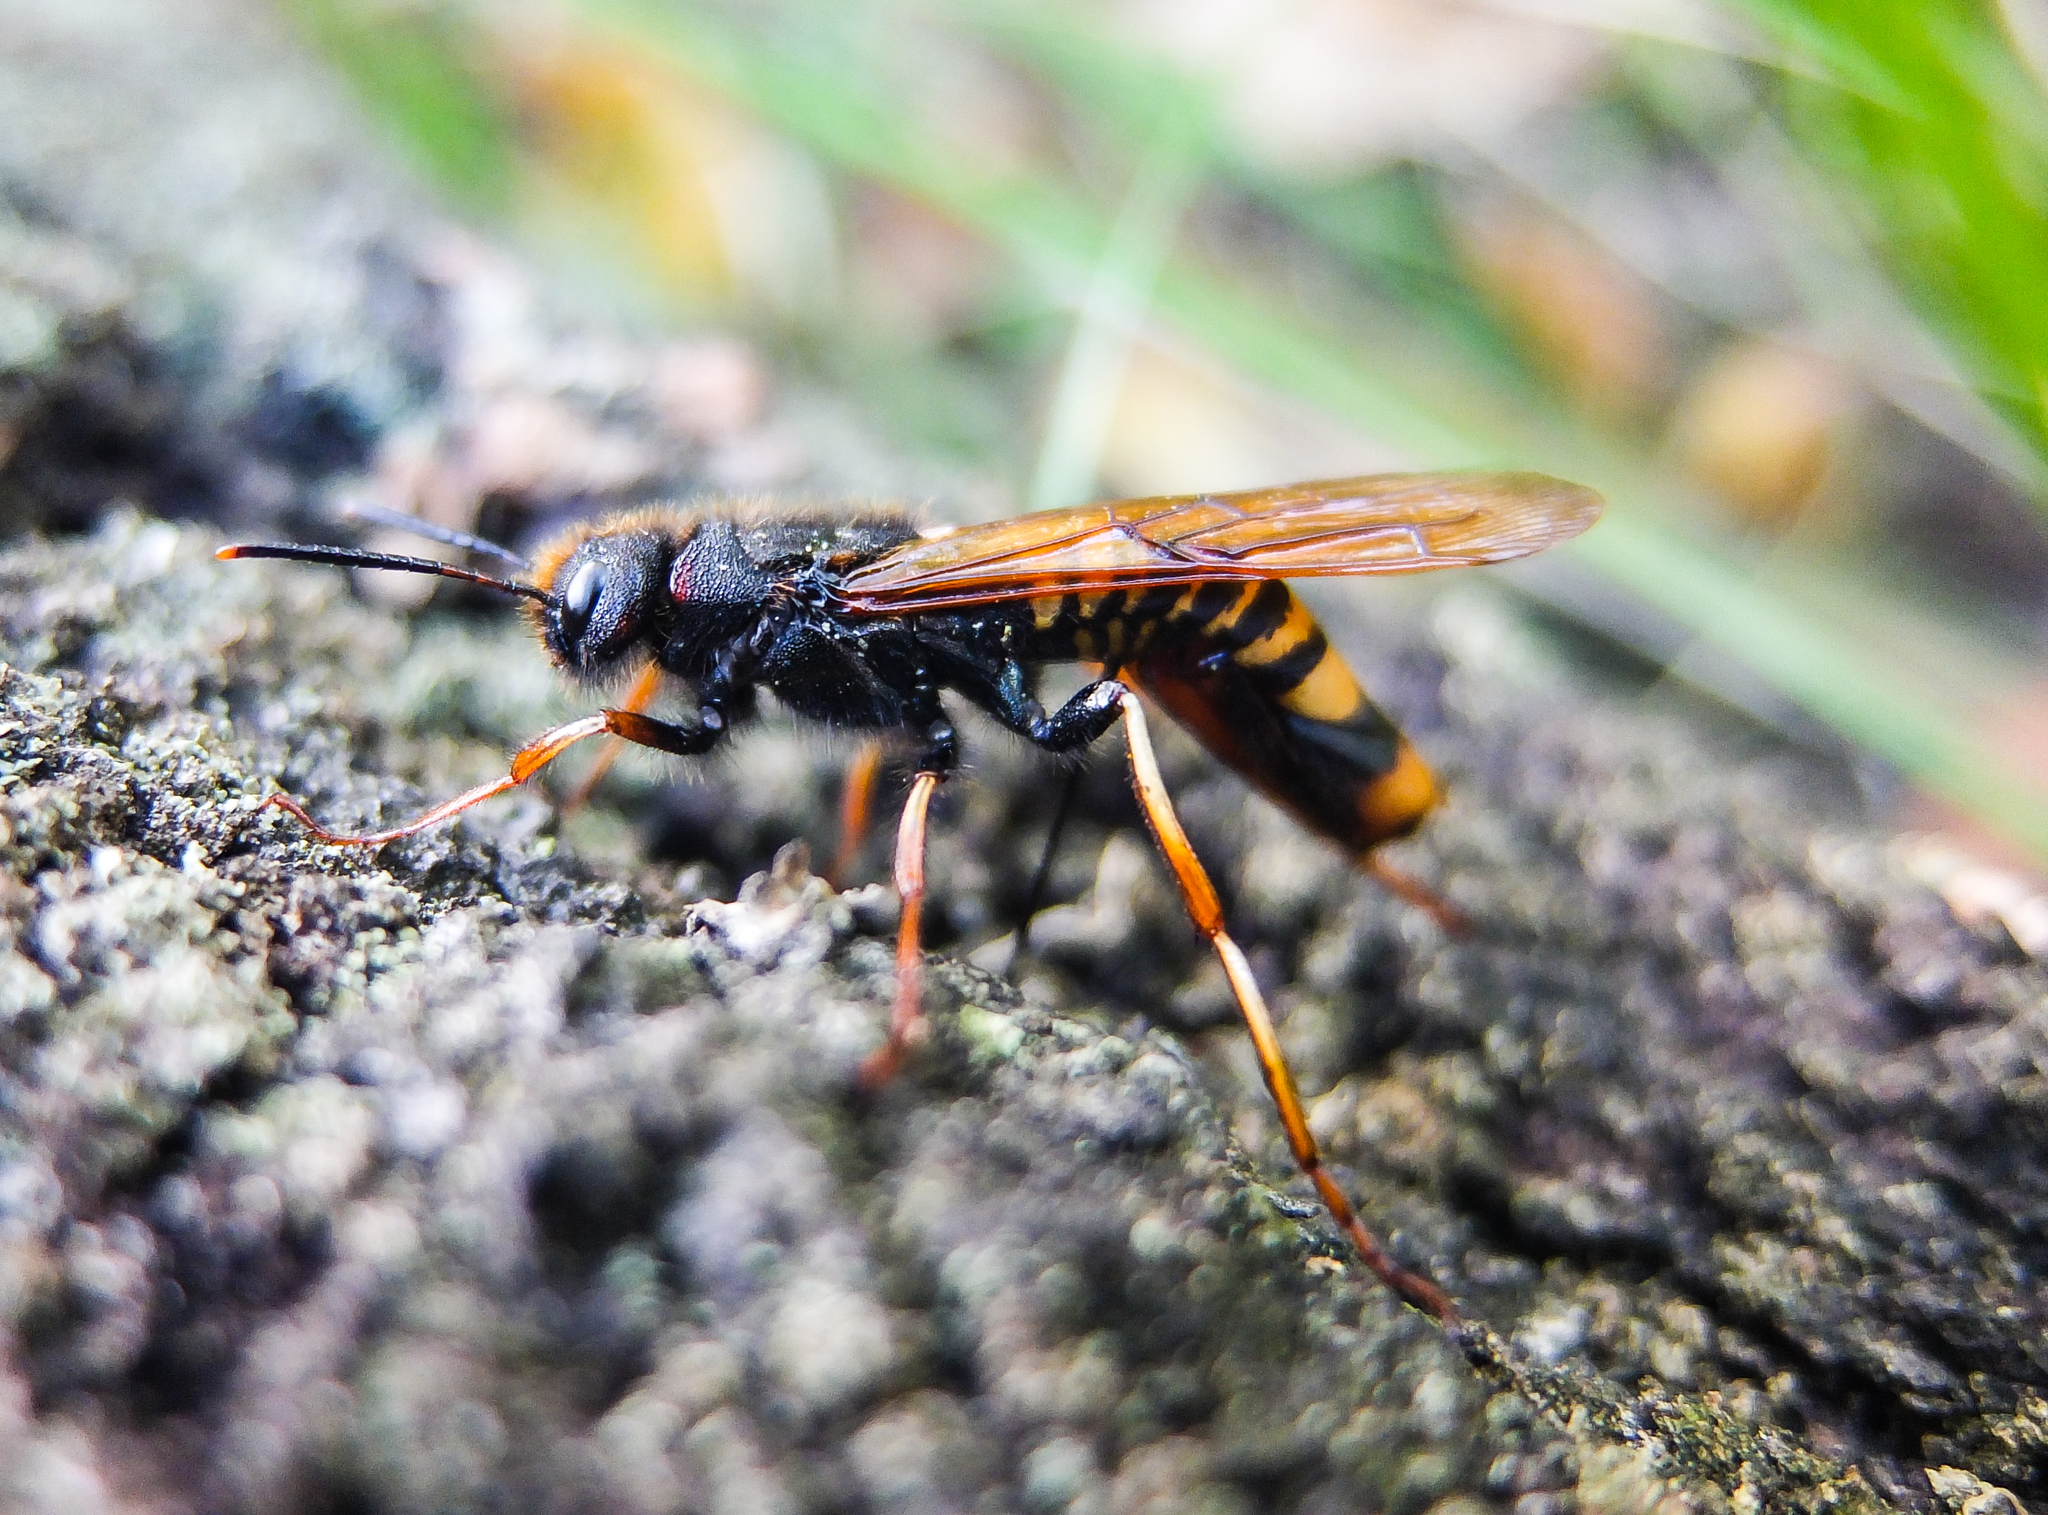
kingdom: Animalia
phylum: Arthropoda
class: Insecta
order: Hymenoptera
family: Siricidae
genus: Tremex
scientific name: Tremex fuscicornis
